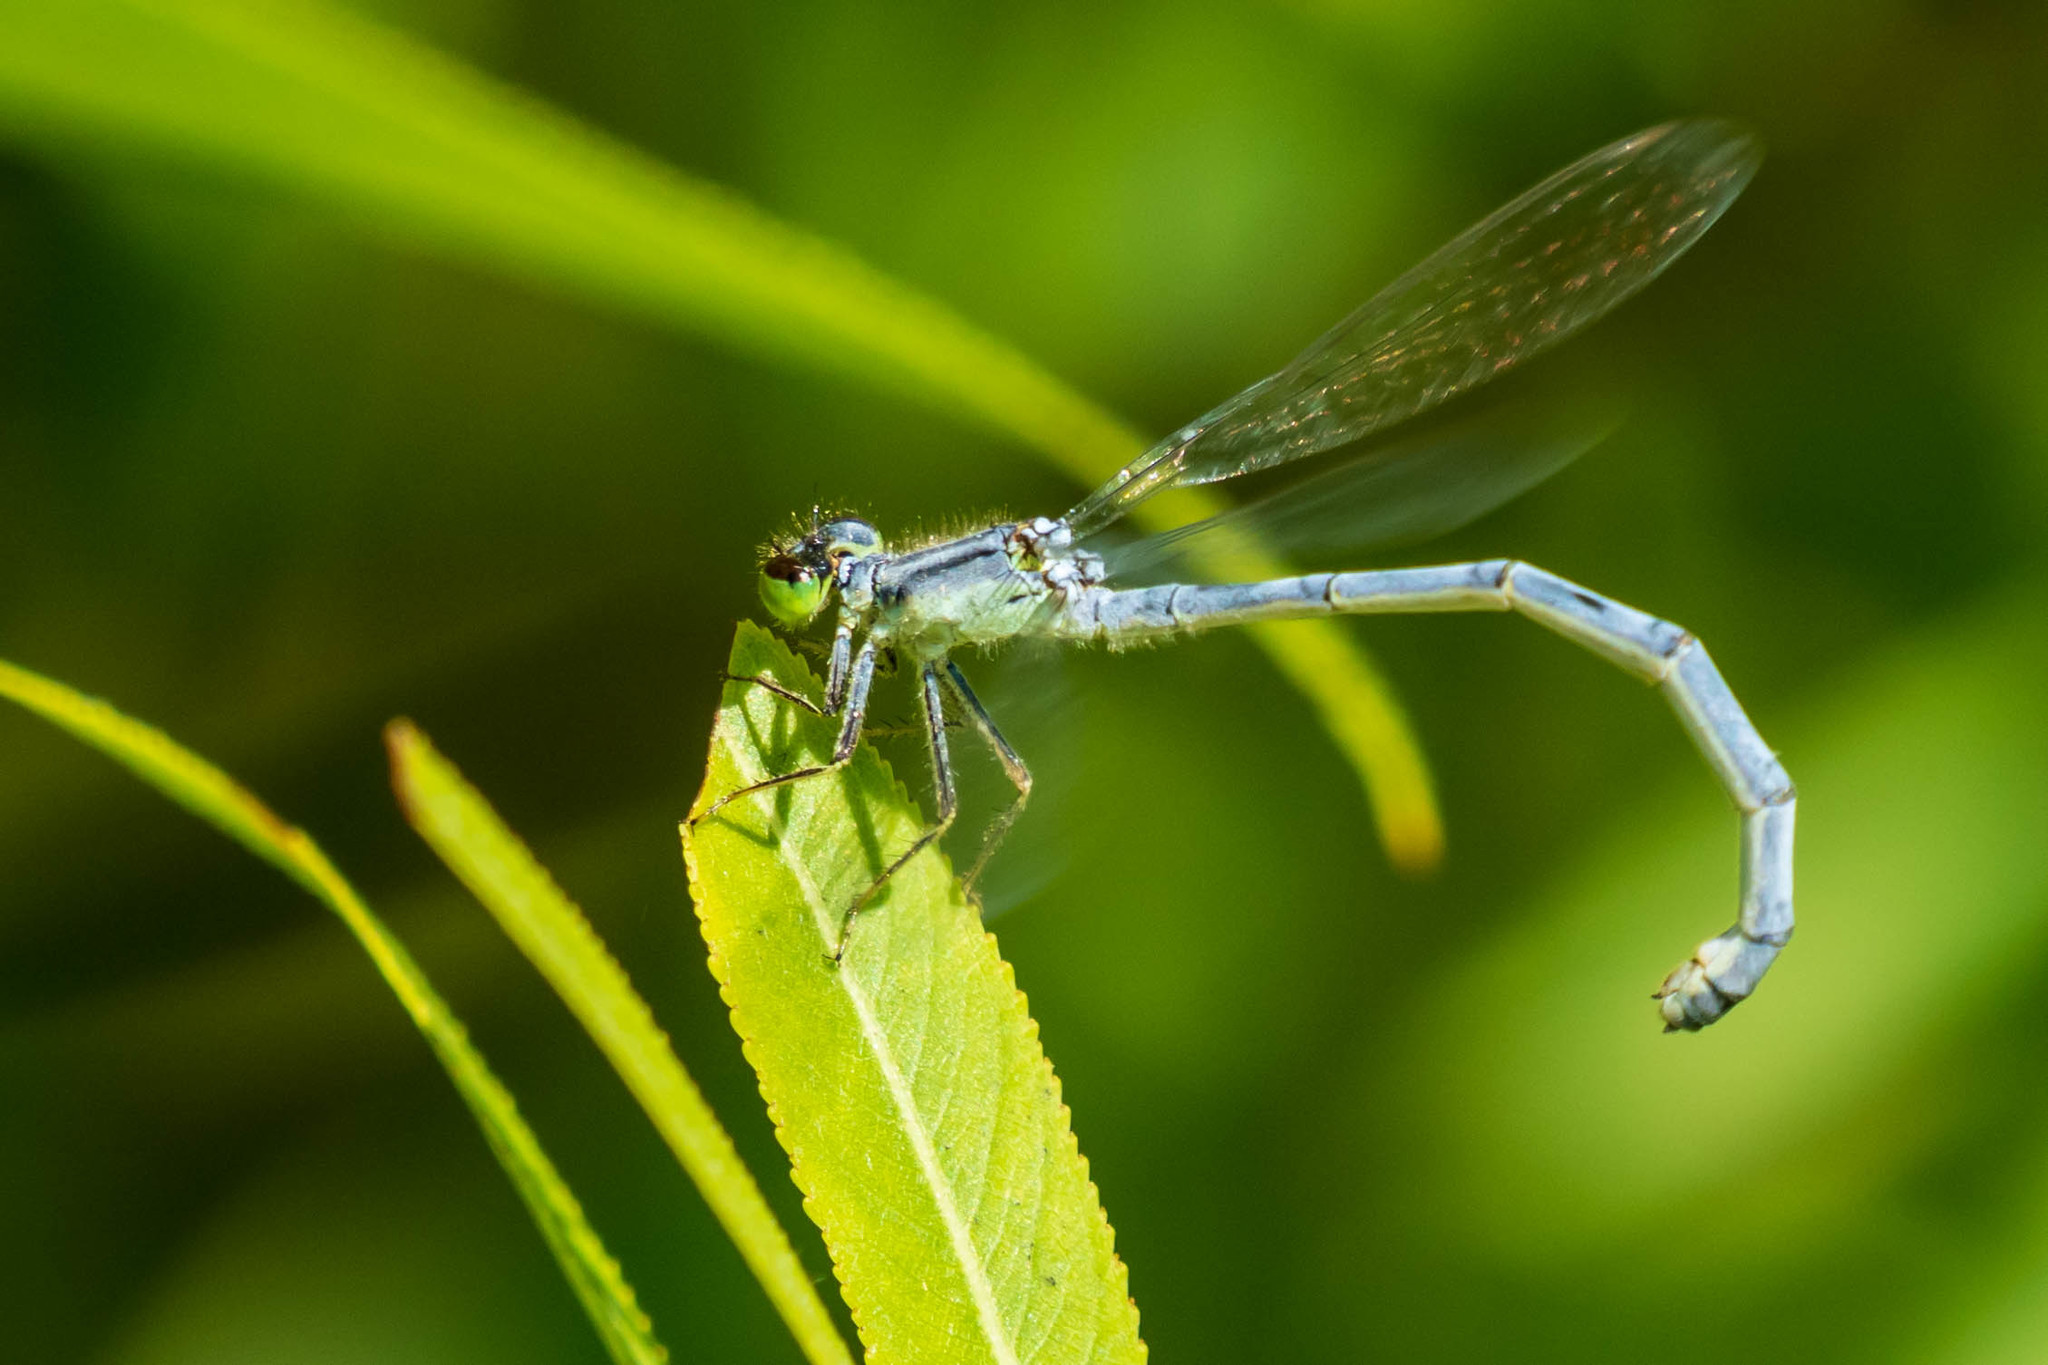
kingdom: Animalia
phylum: Arthropoda
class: Insecta
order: Odonata
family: Coenagrionidae
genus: Ischnura
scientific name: Ischnura verticalis
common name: Eastern forktail
